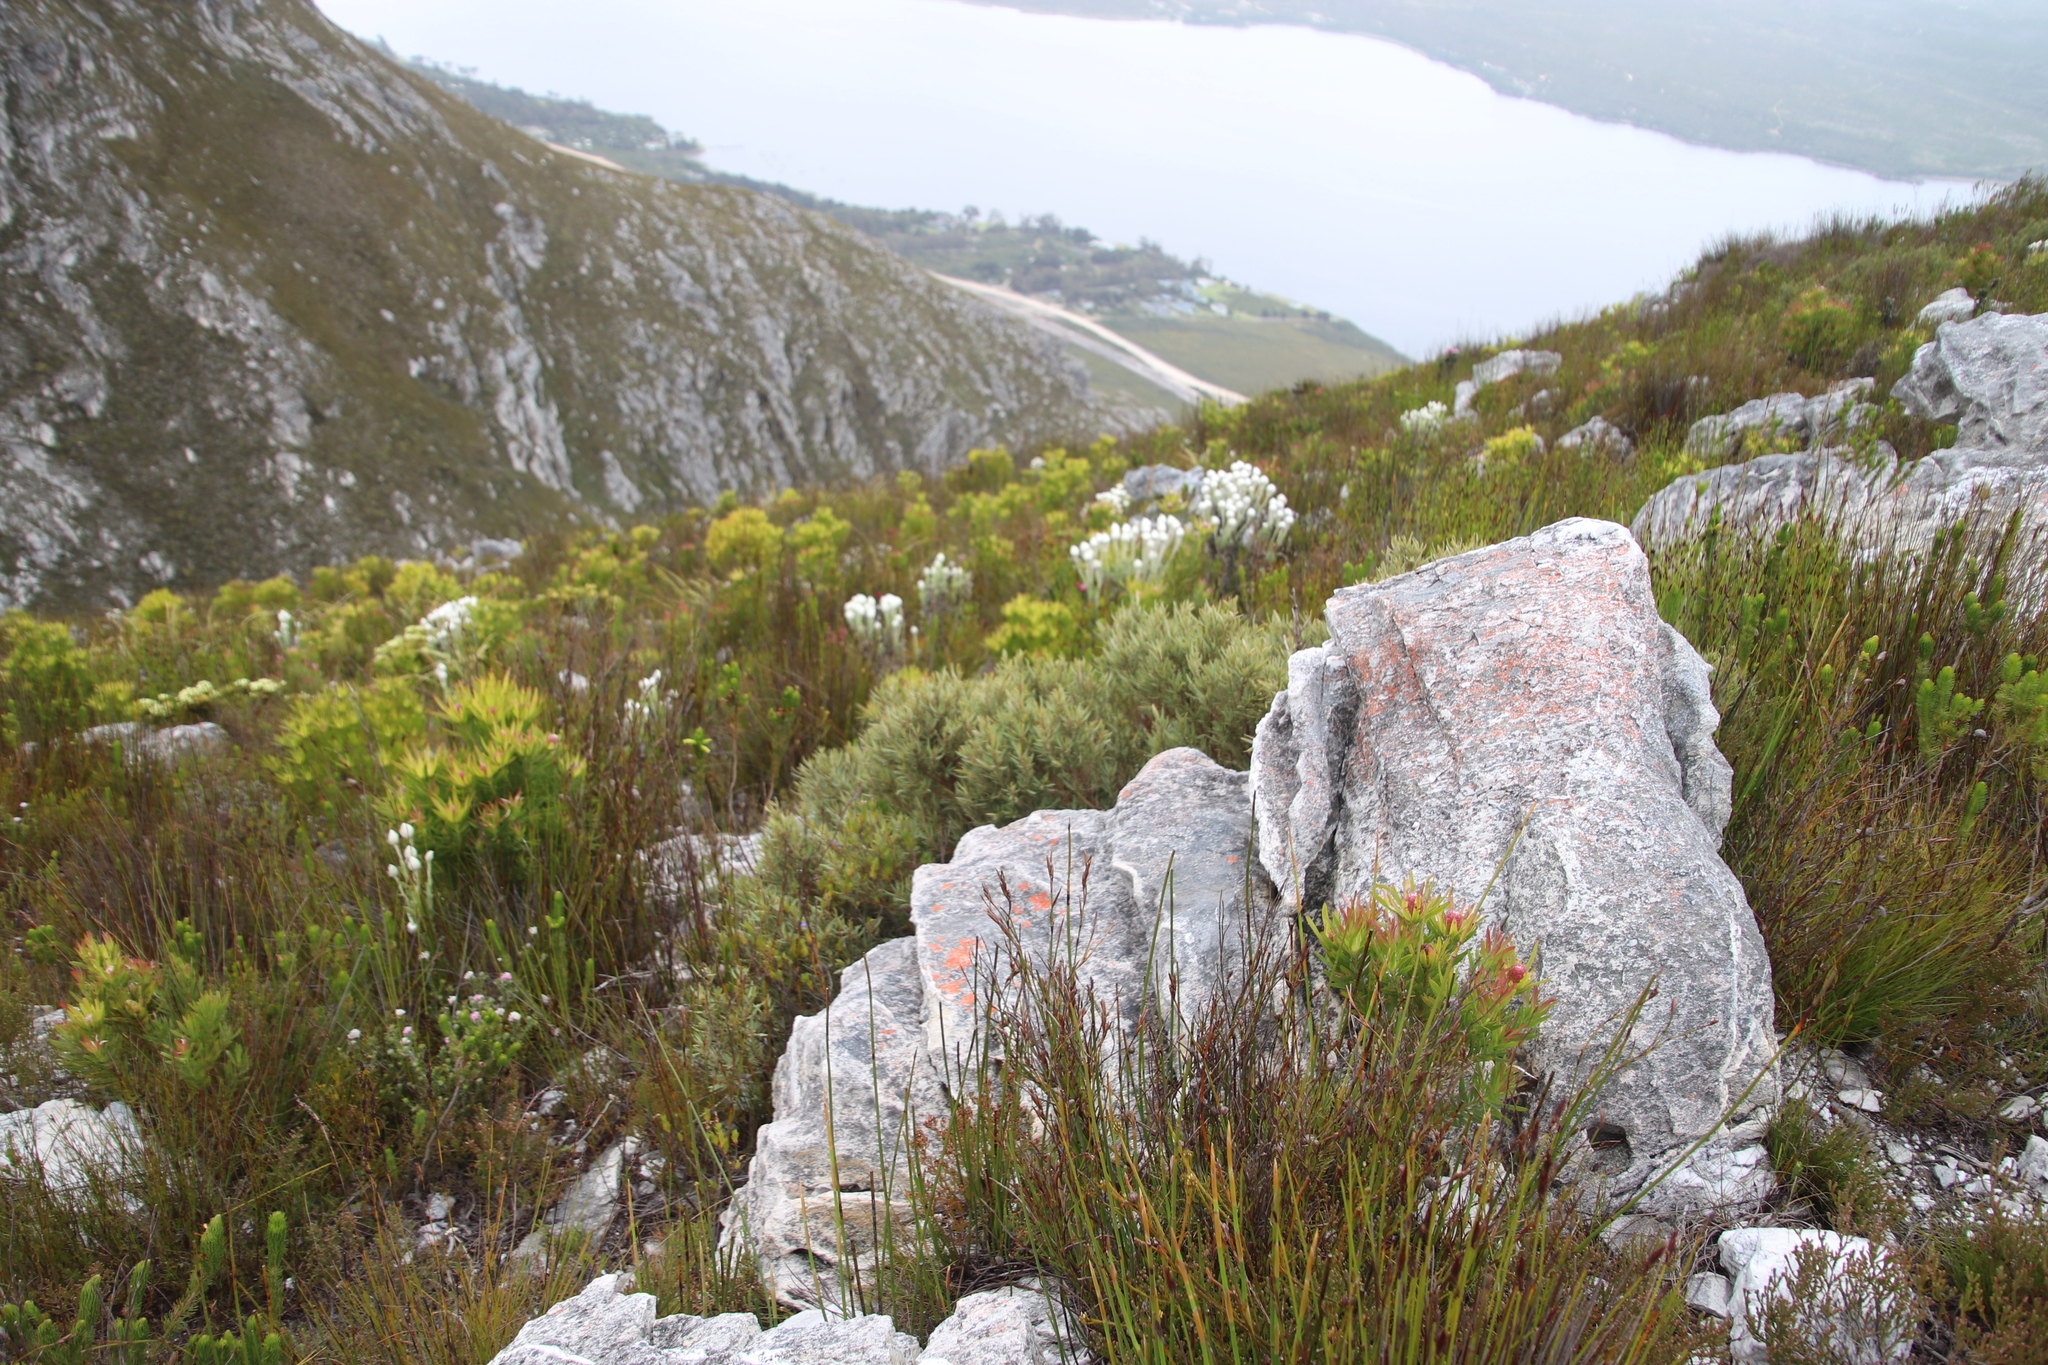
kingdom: Plantae
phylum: Tracheophyta
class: Magnoliopsida
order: Cornales
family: Grubbiaceae
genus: Grubbia
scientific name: Grubbia tomentosa
